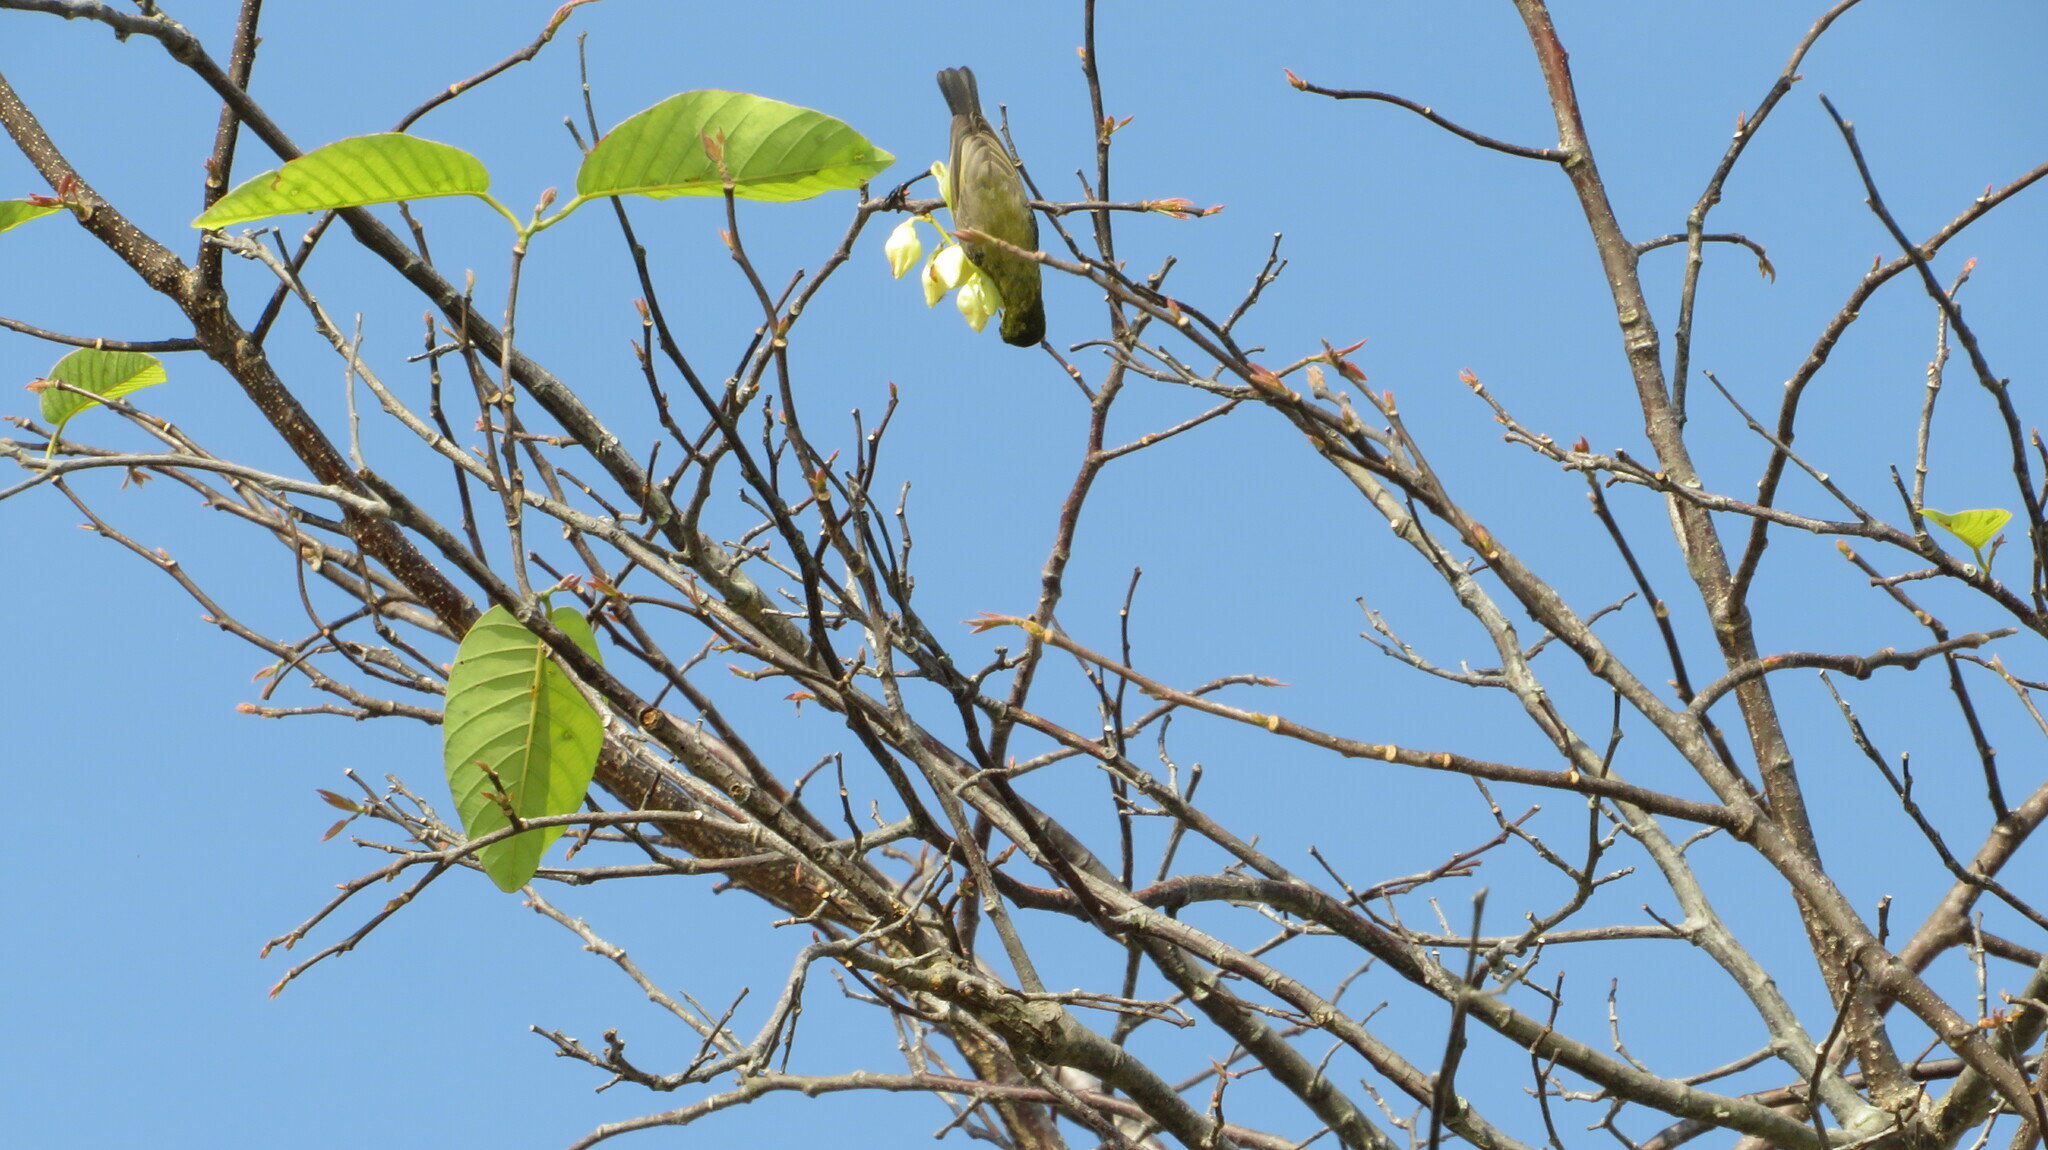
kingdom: Animalia
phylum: Chordata
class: Aves
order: Passeriformes
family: Nectariniidae
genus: Cinnyris
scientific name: Cinnyris
